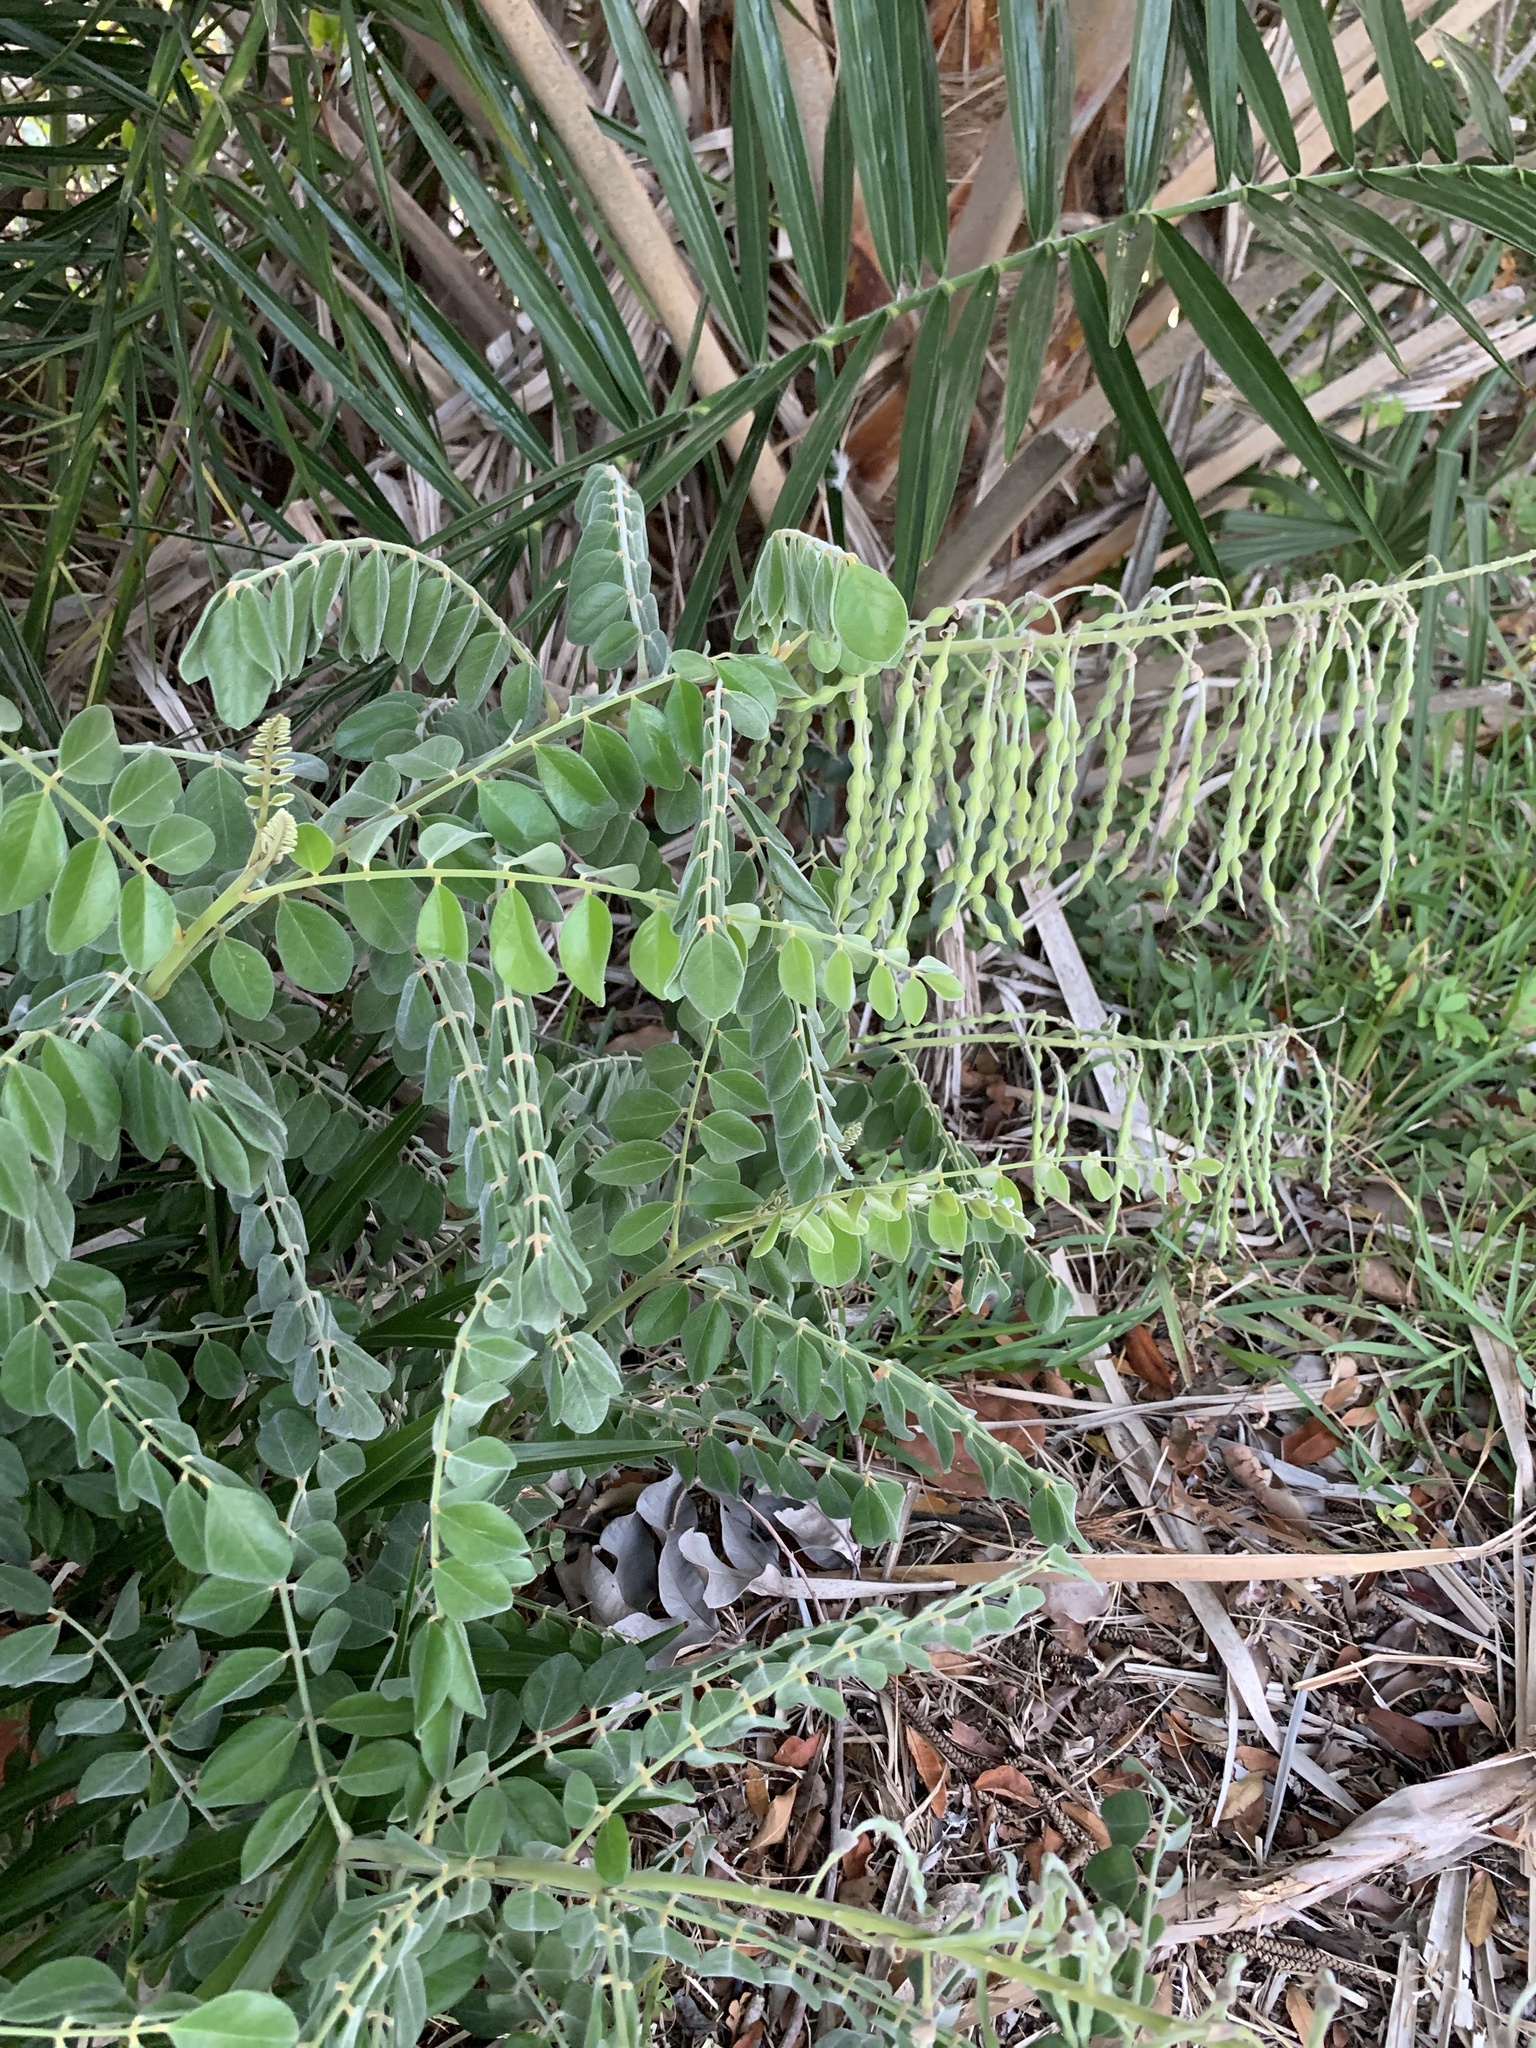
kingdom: Plantae
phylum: Tracheophyta
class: Magnoliopsida
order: Fabales
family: Fabaceae
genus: Sophora
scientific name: Sophora tomentosa
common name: Yellow necklacepod
